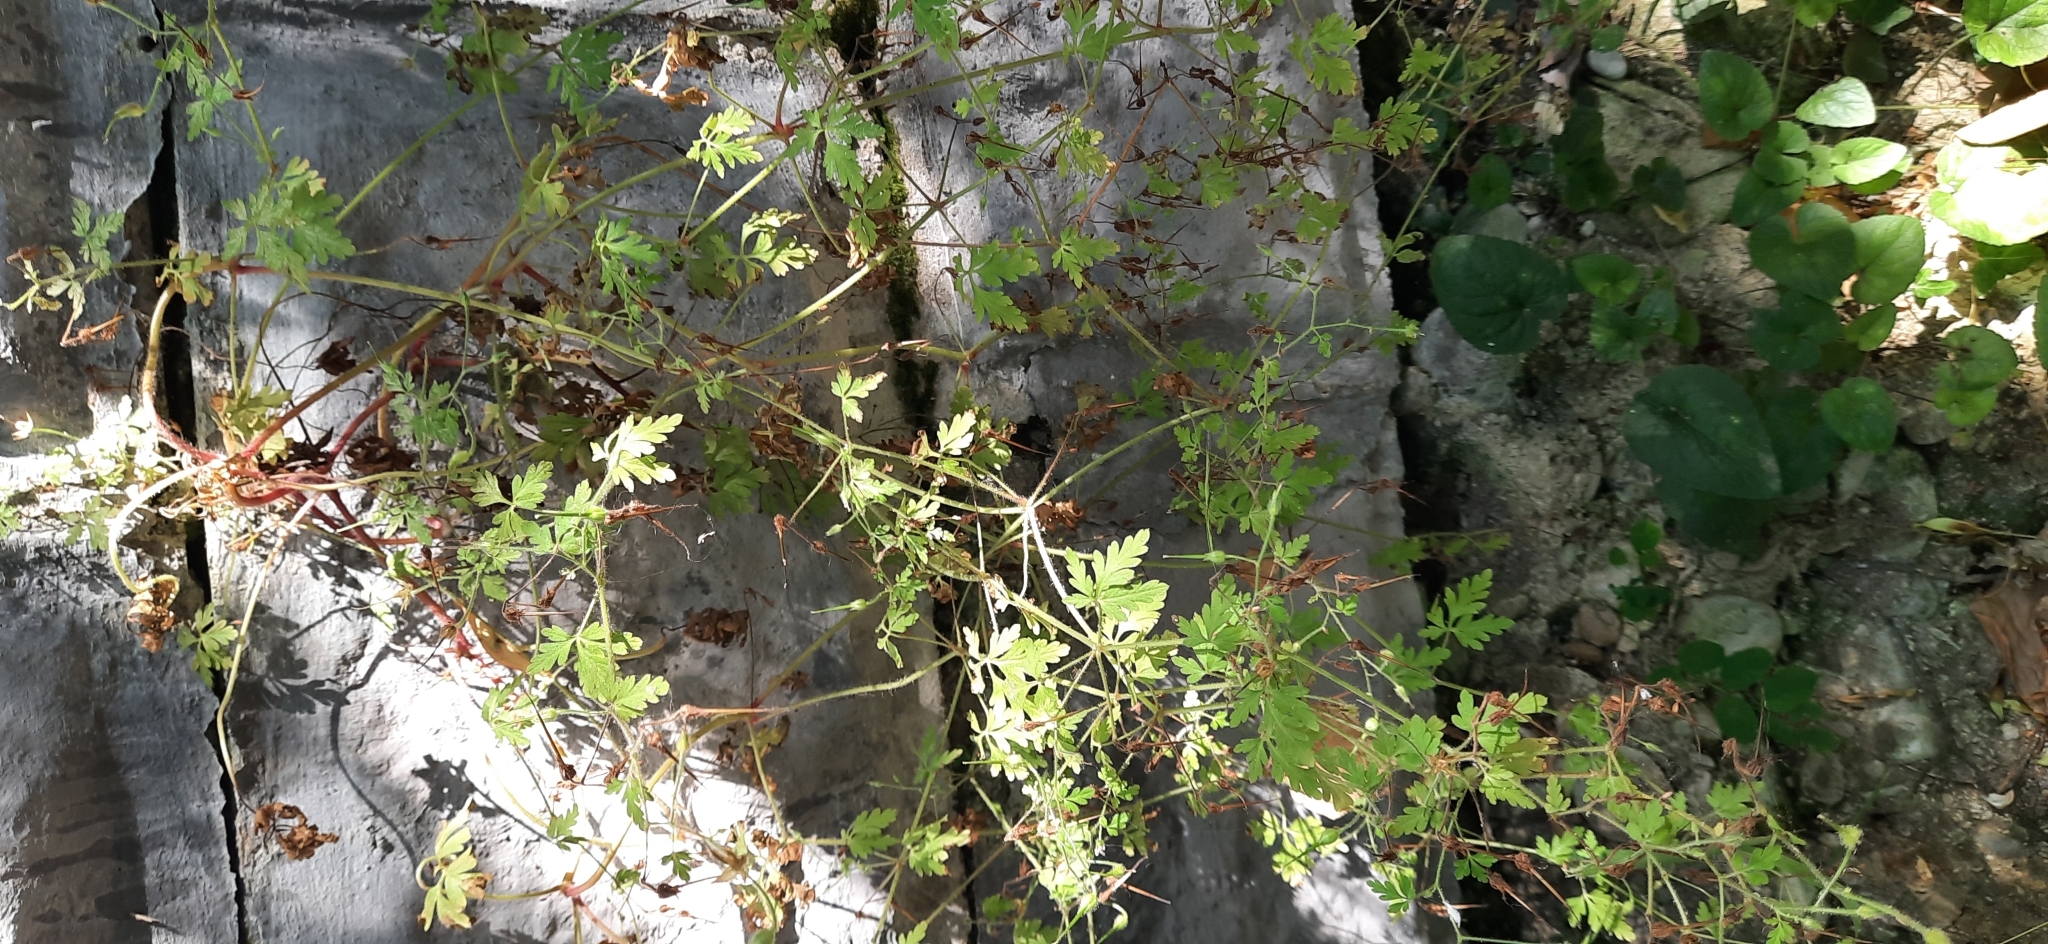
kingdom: Plantae
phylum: Tracheophyta
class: Magnoliopsida
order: Geraniales
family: Geraniaceae
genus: Geranium
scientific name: Geranium robertianum
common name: Herb-robert
